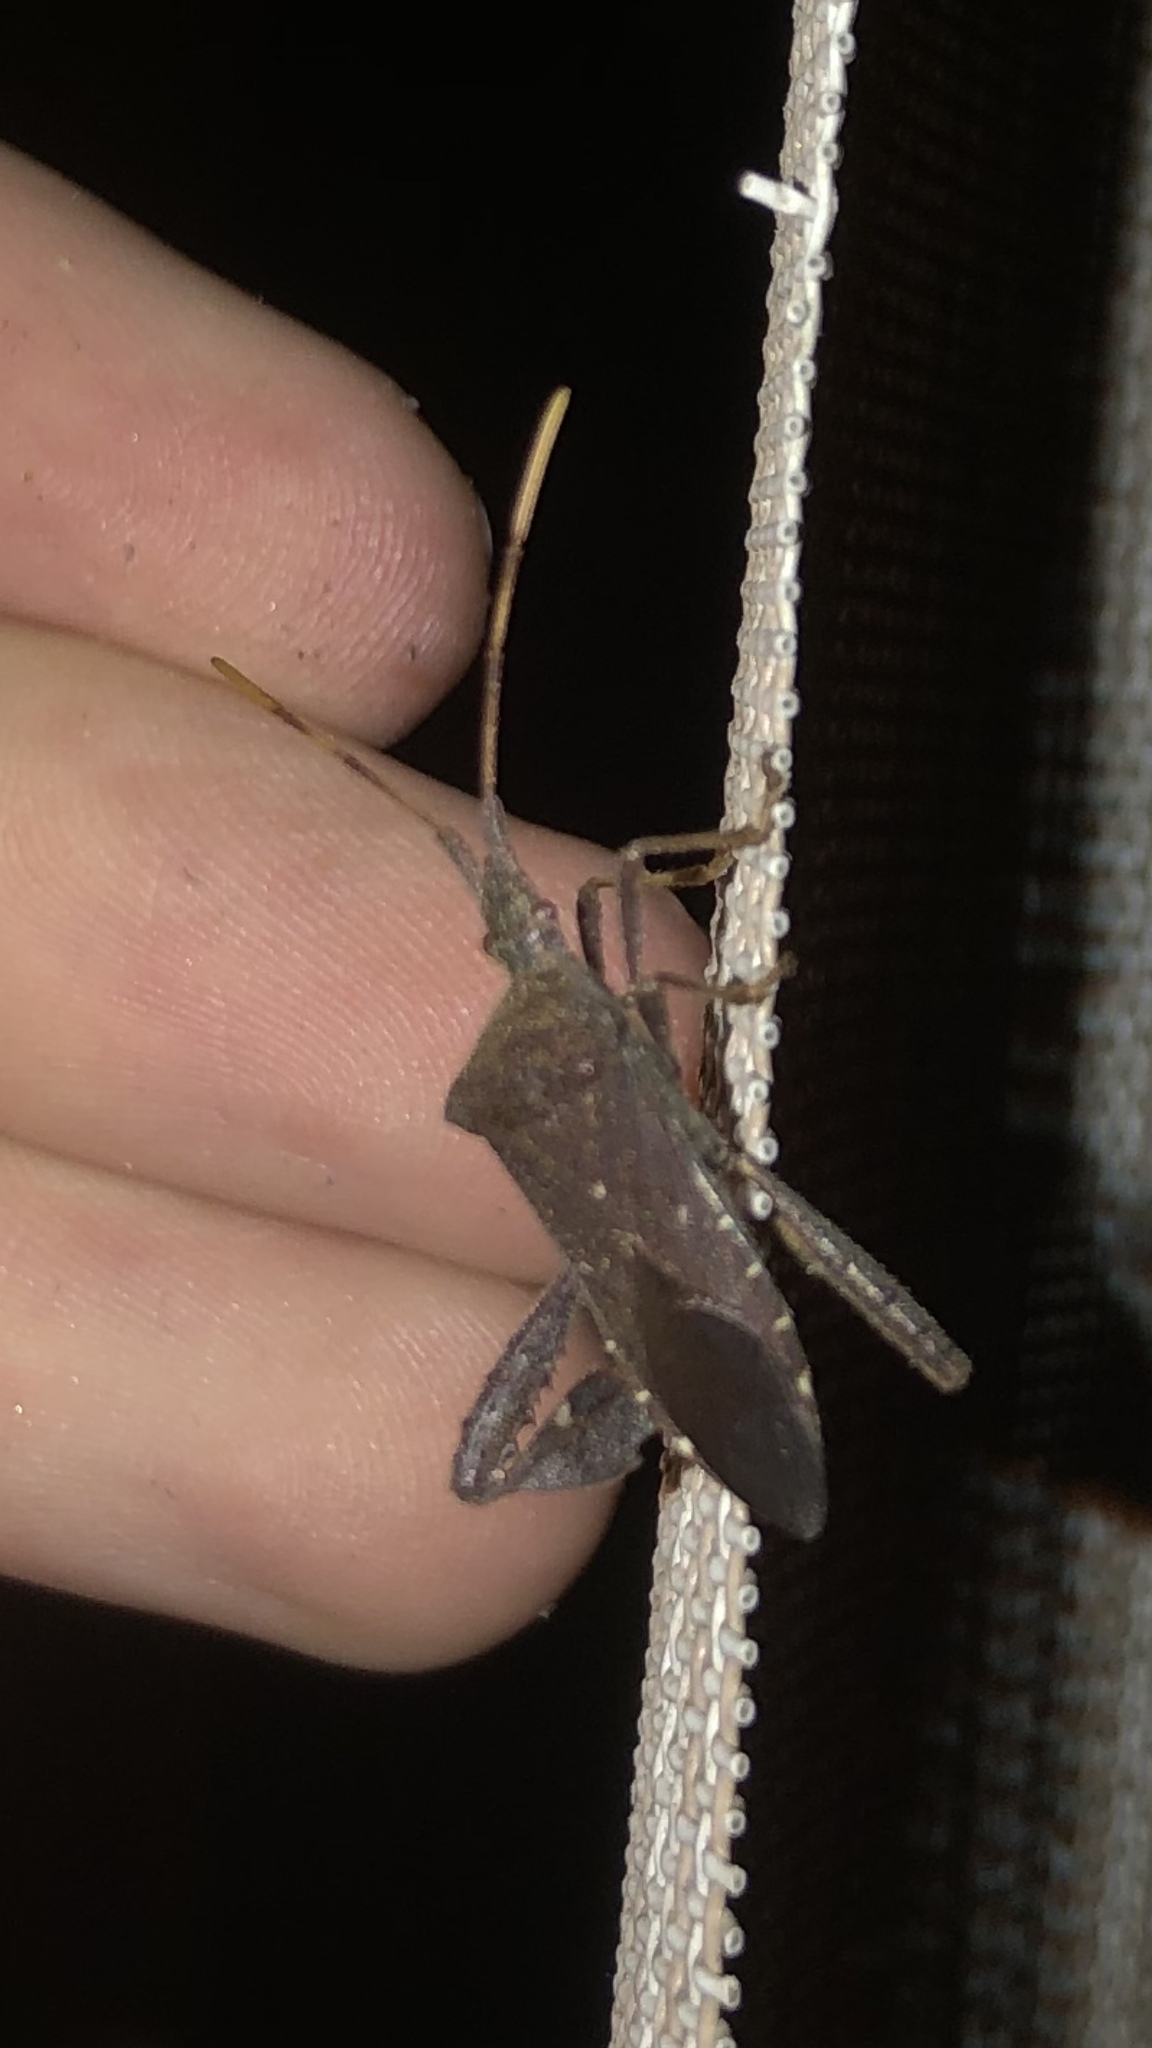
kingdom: Animalia
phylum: Arthropoda
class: Insecta
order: Hemiptera
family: Coreidae
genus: Leptoglossus
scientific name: Leptoglossus oppositus
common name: Northern leaf-footed bug
